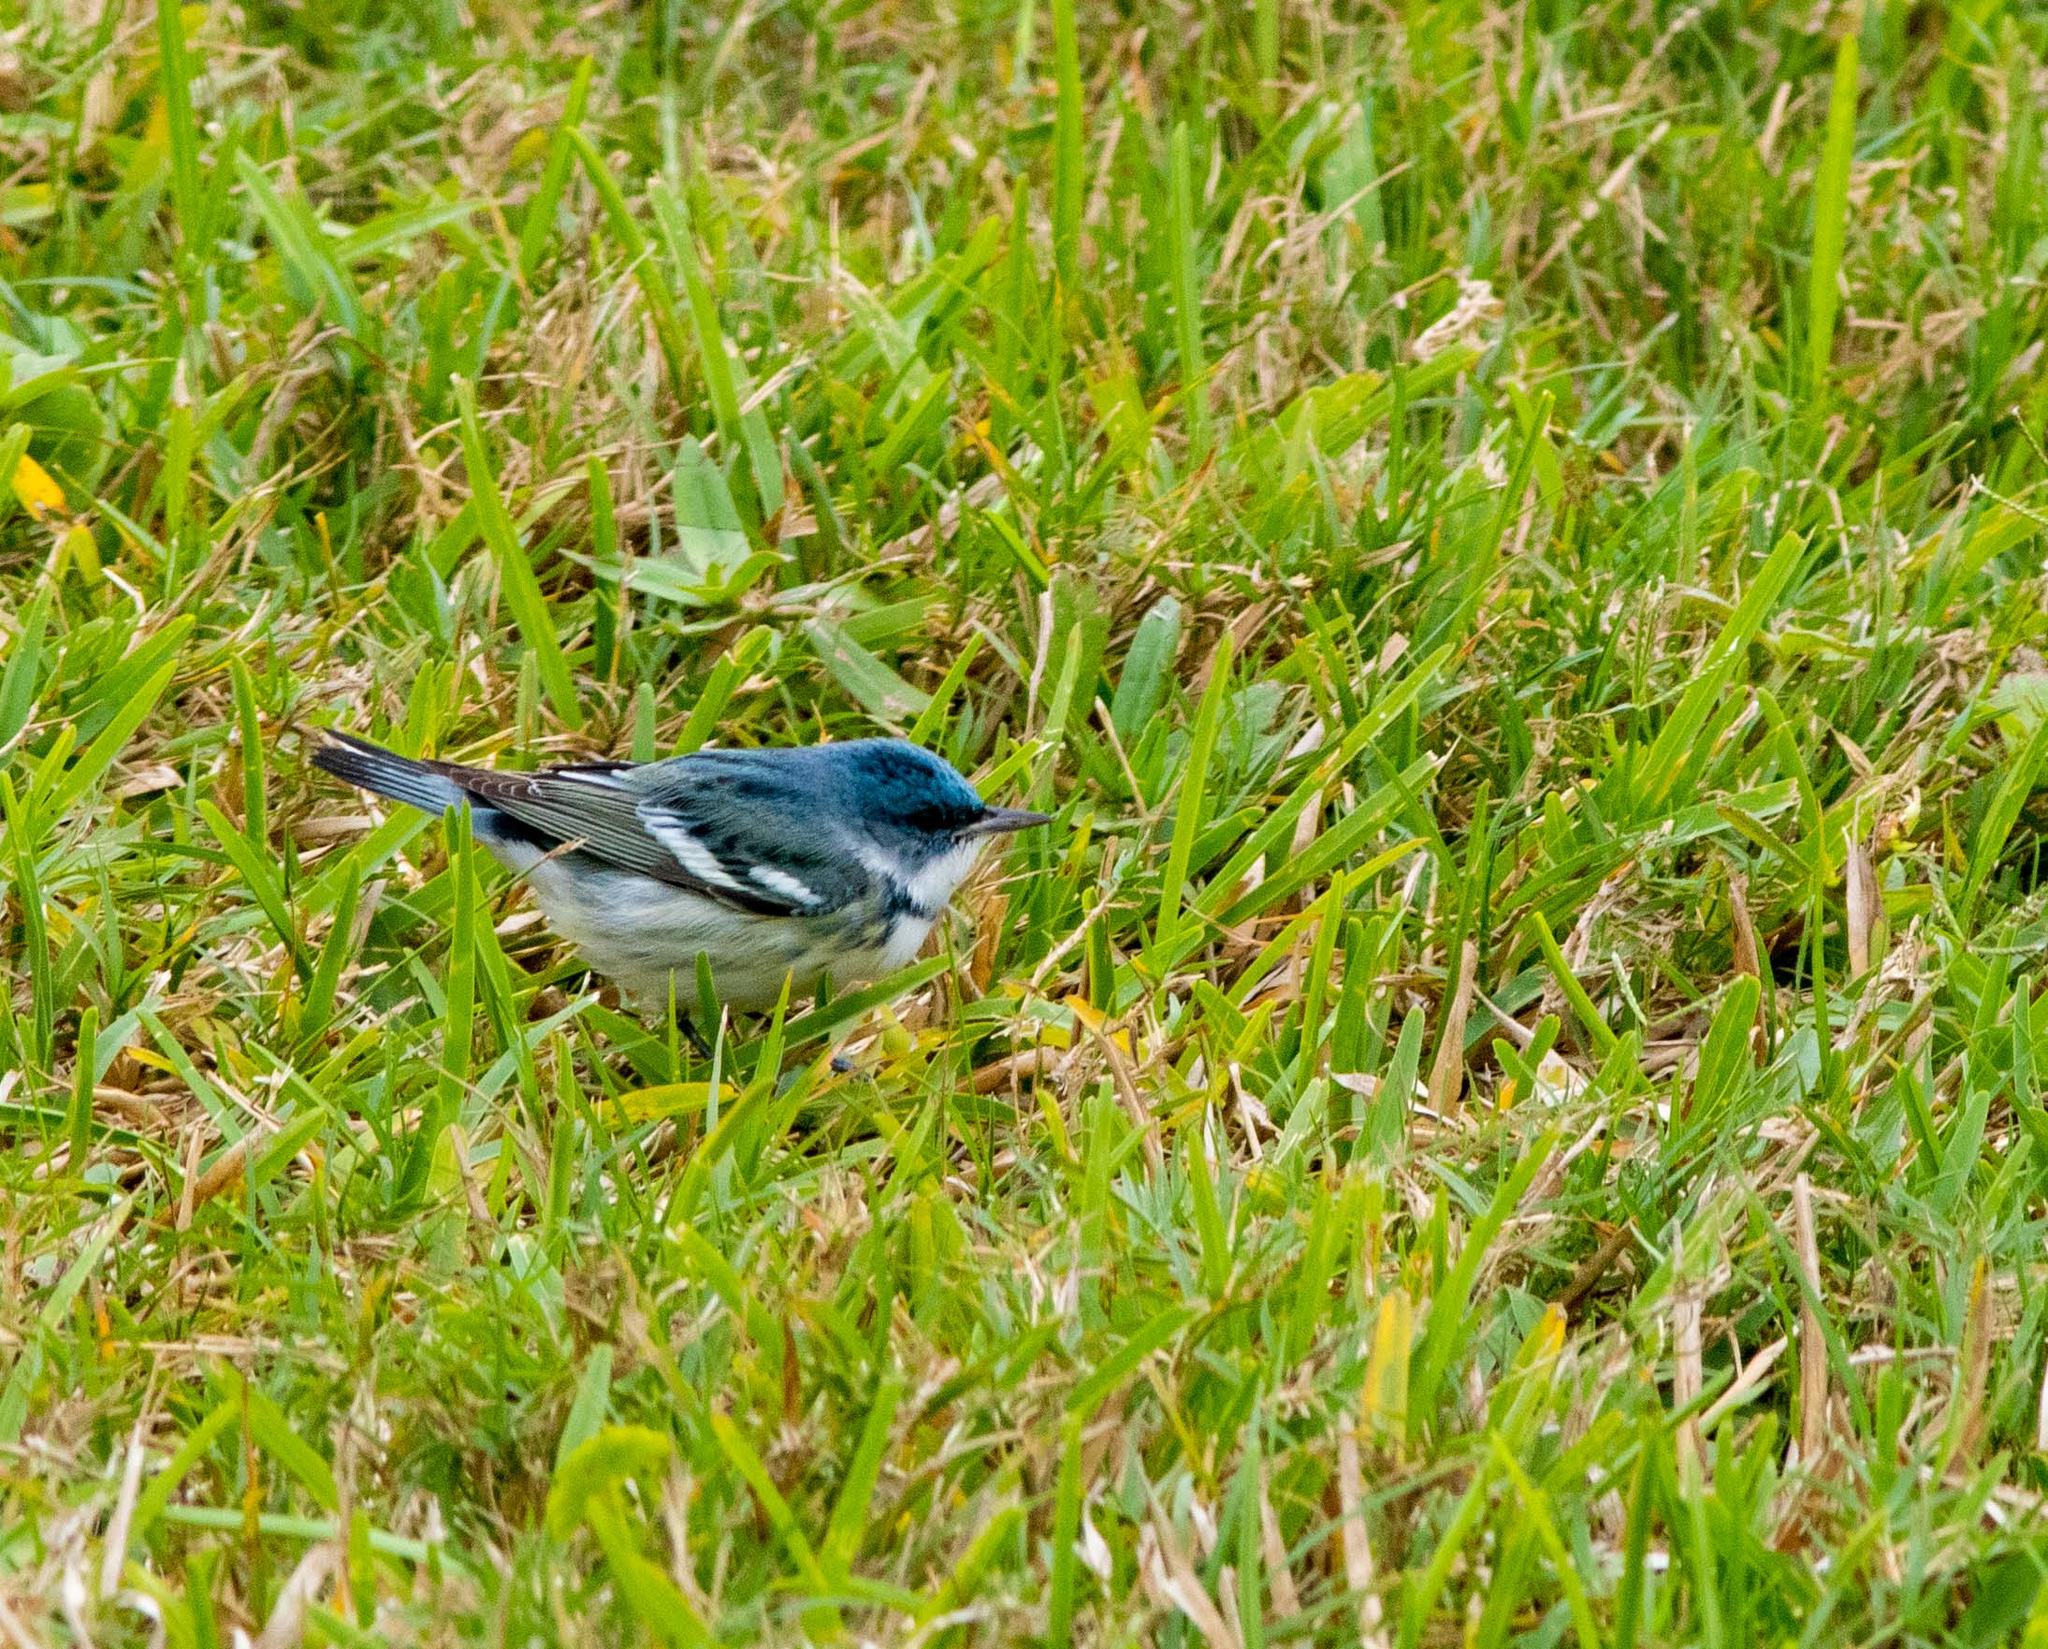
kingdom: Animalia
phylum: Chordata
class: Aves
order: Passeriformes
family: Parulidae
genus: Setophaga
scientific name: Setophaga cerulea
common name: Cerulean warbler
